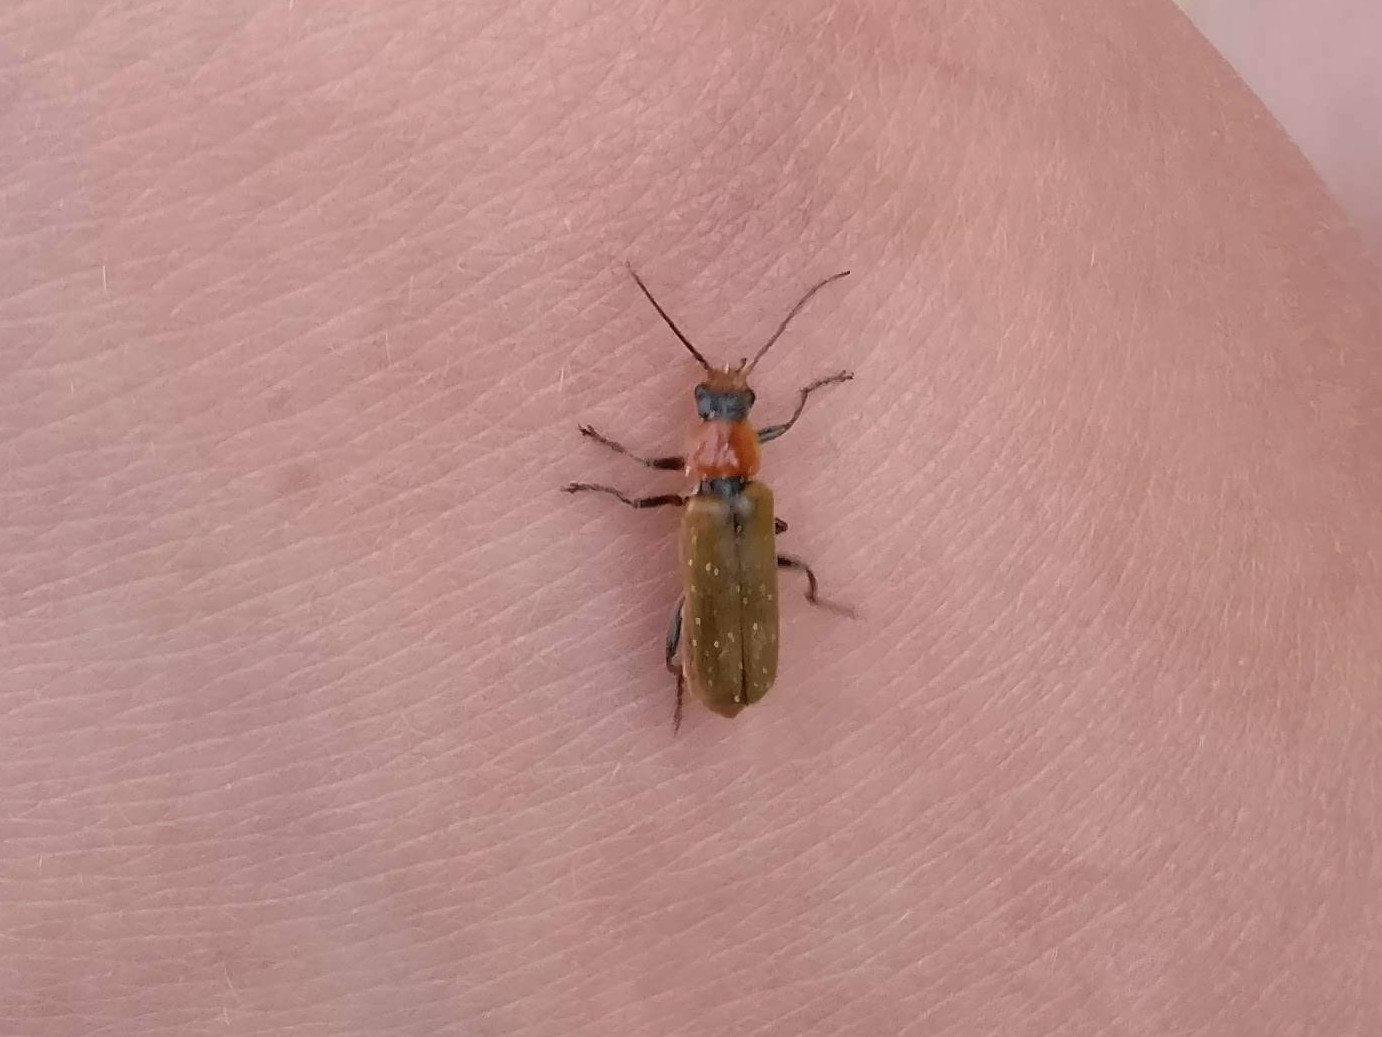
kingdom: Animalia
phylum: Arthropoda
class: Insecta
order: Coleoptera
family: Cantharidae
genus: Cantharis
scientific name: Cantharis quadripunctata
